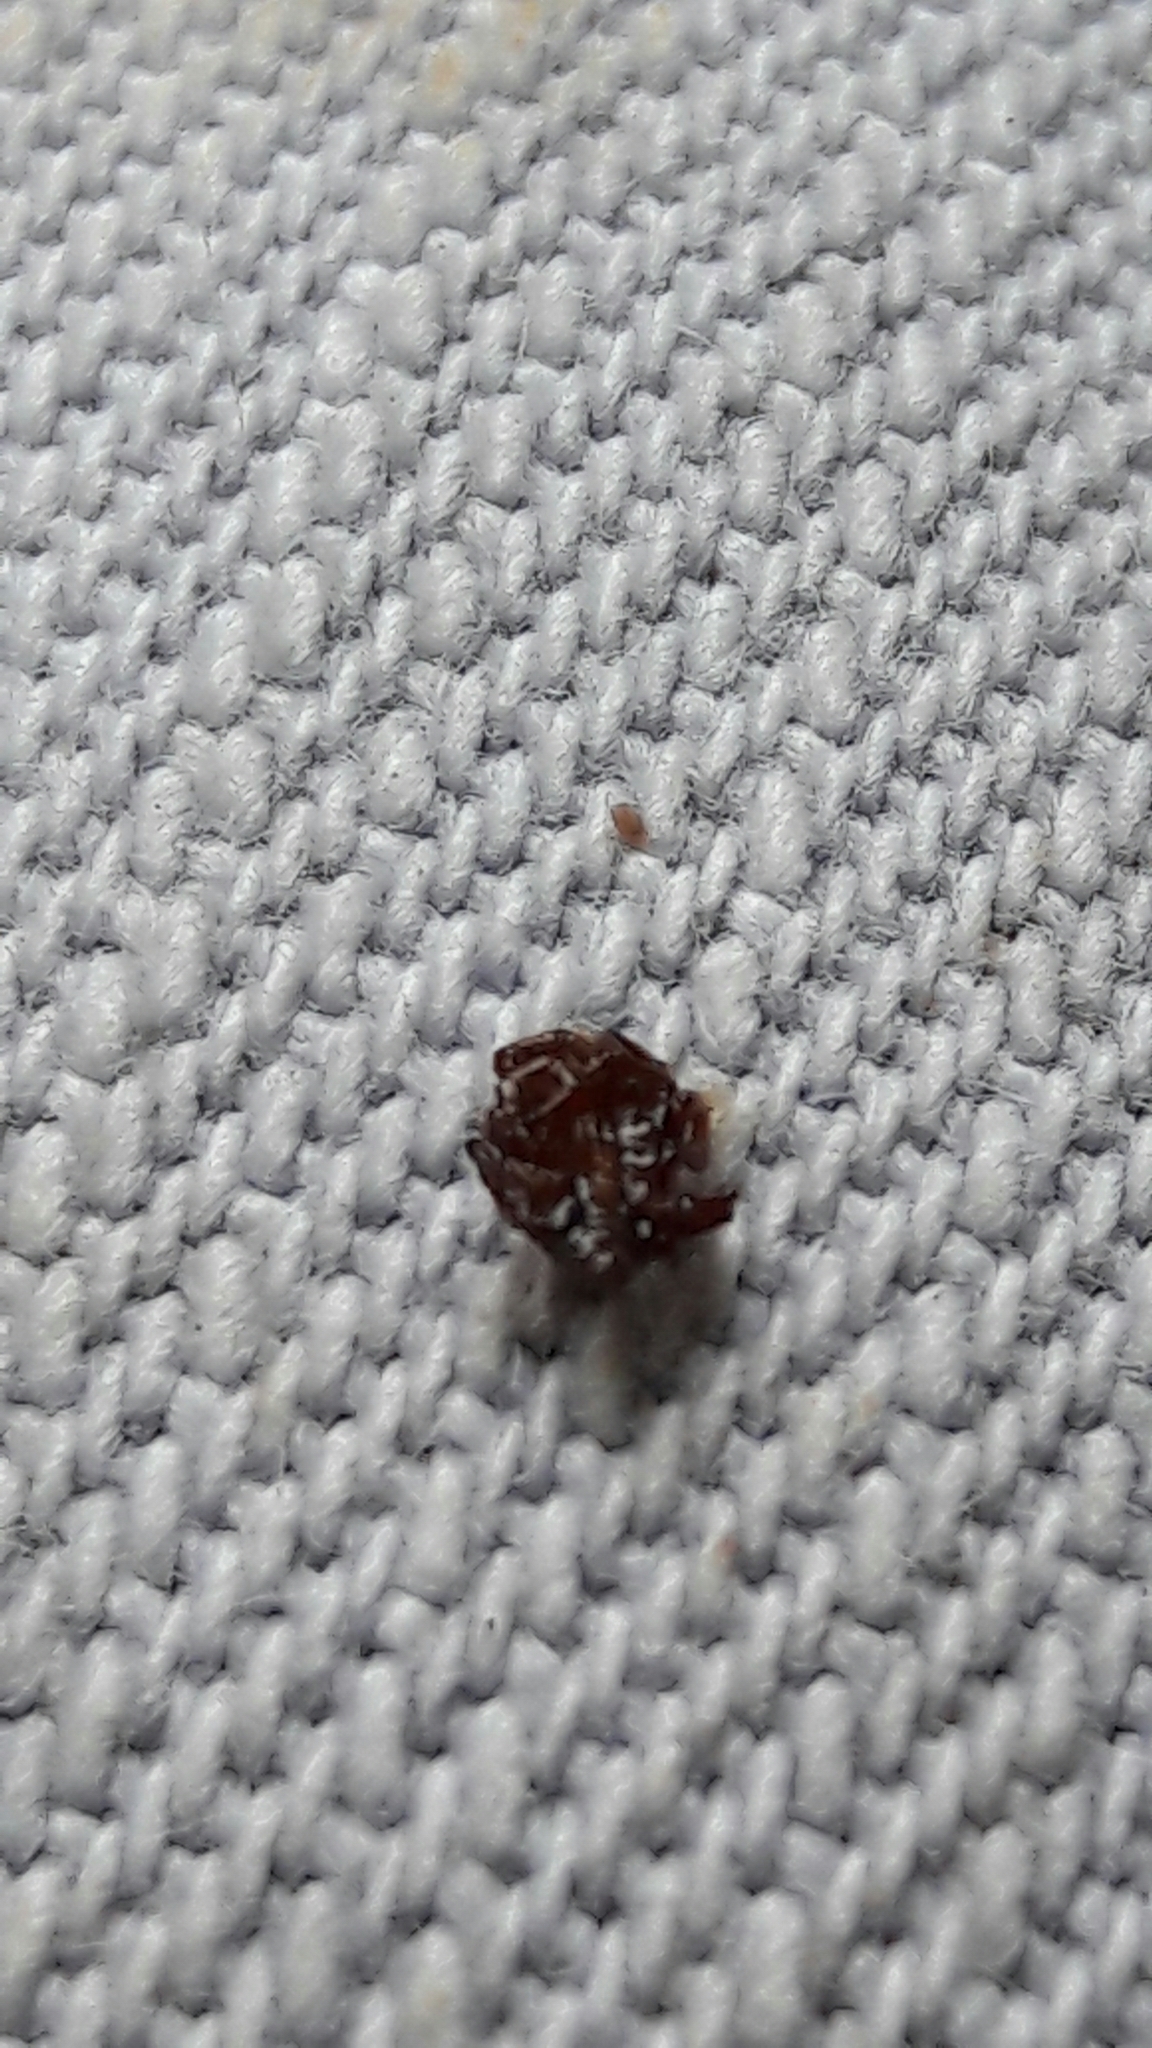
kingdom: Animalia
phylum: Arthropoda
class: Arachnida
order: Ixodida
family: Ixodidae
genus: Rhipicephalus
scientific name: Rhipicephalus sanguineus
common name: Brown dog tick
